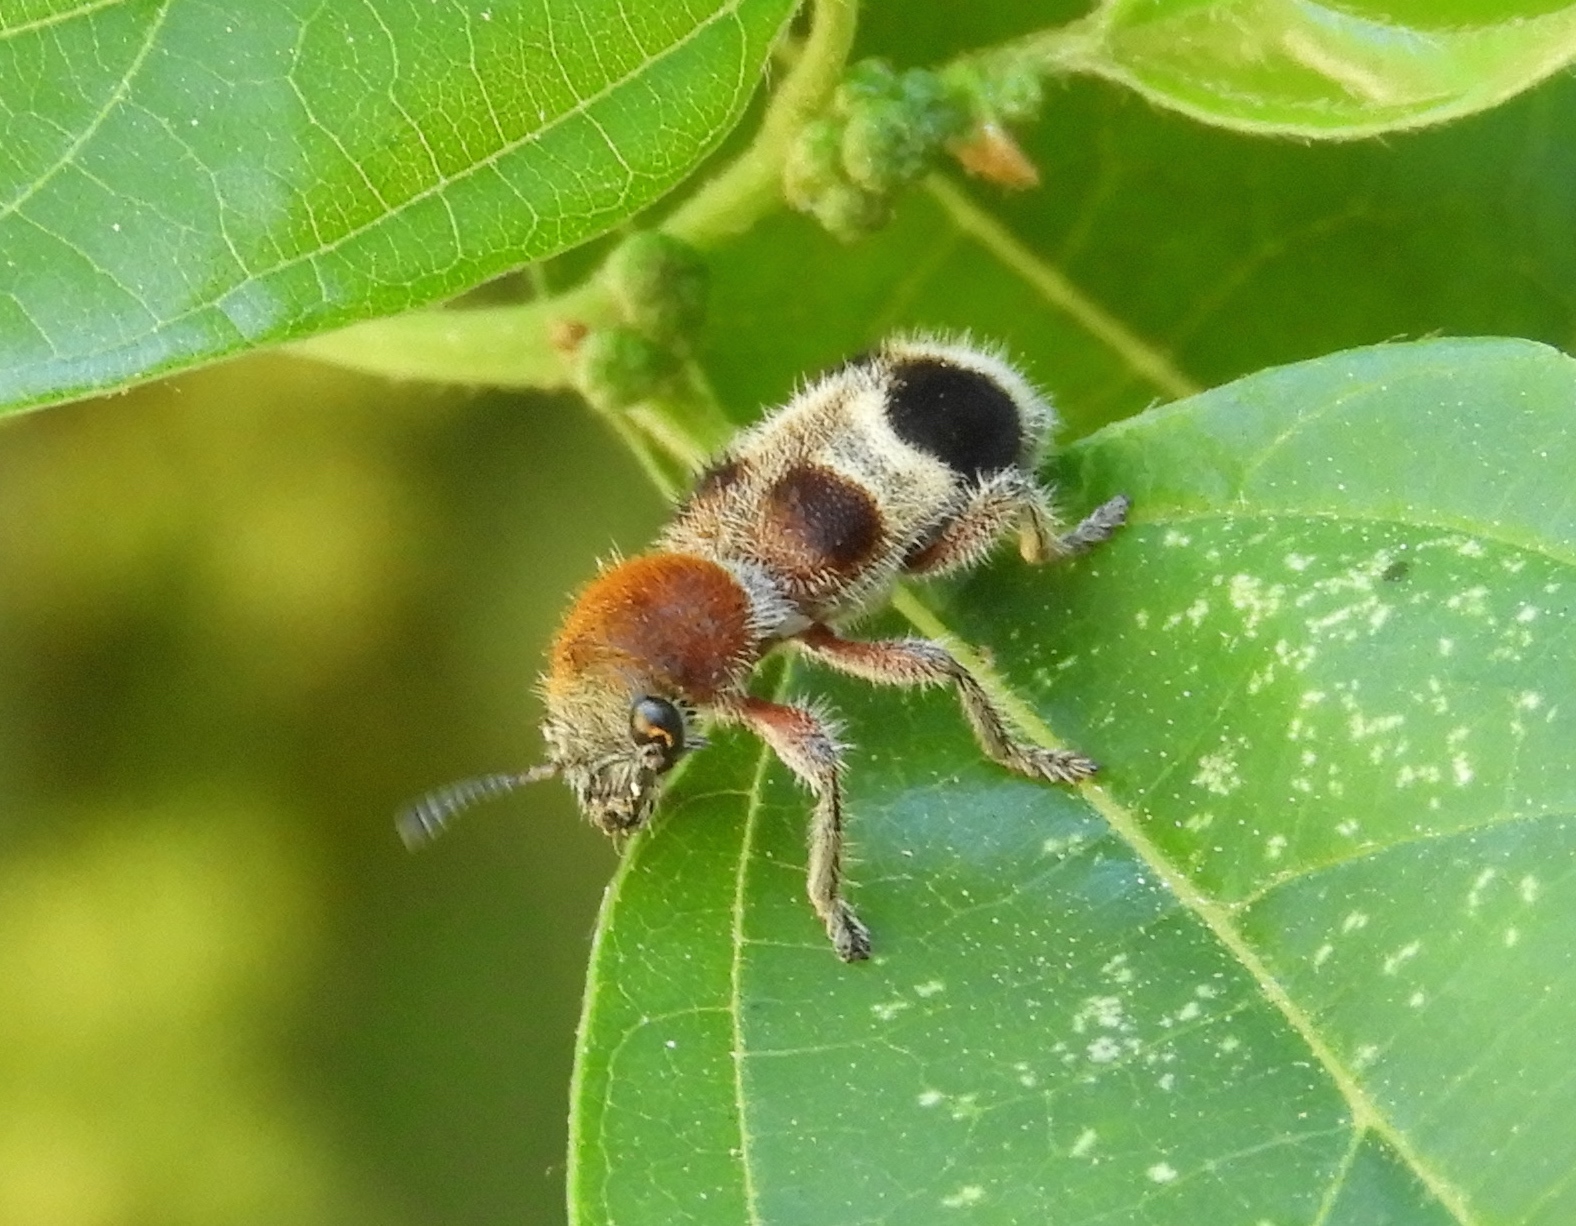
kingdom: Animalia
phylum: Arthropoda
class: Insecta
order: Coleoptera
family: Cleridae
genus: Enoclerus
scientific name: Enoclerus quadriguttatus
